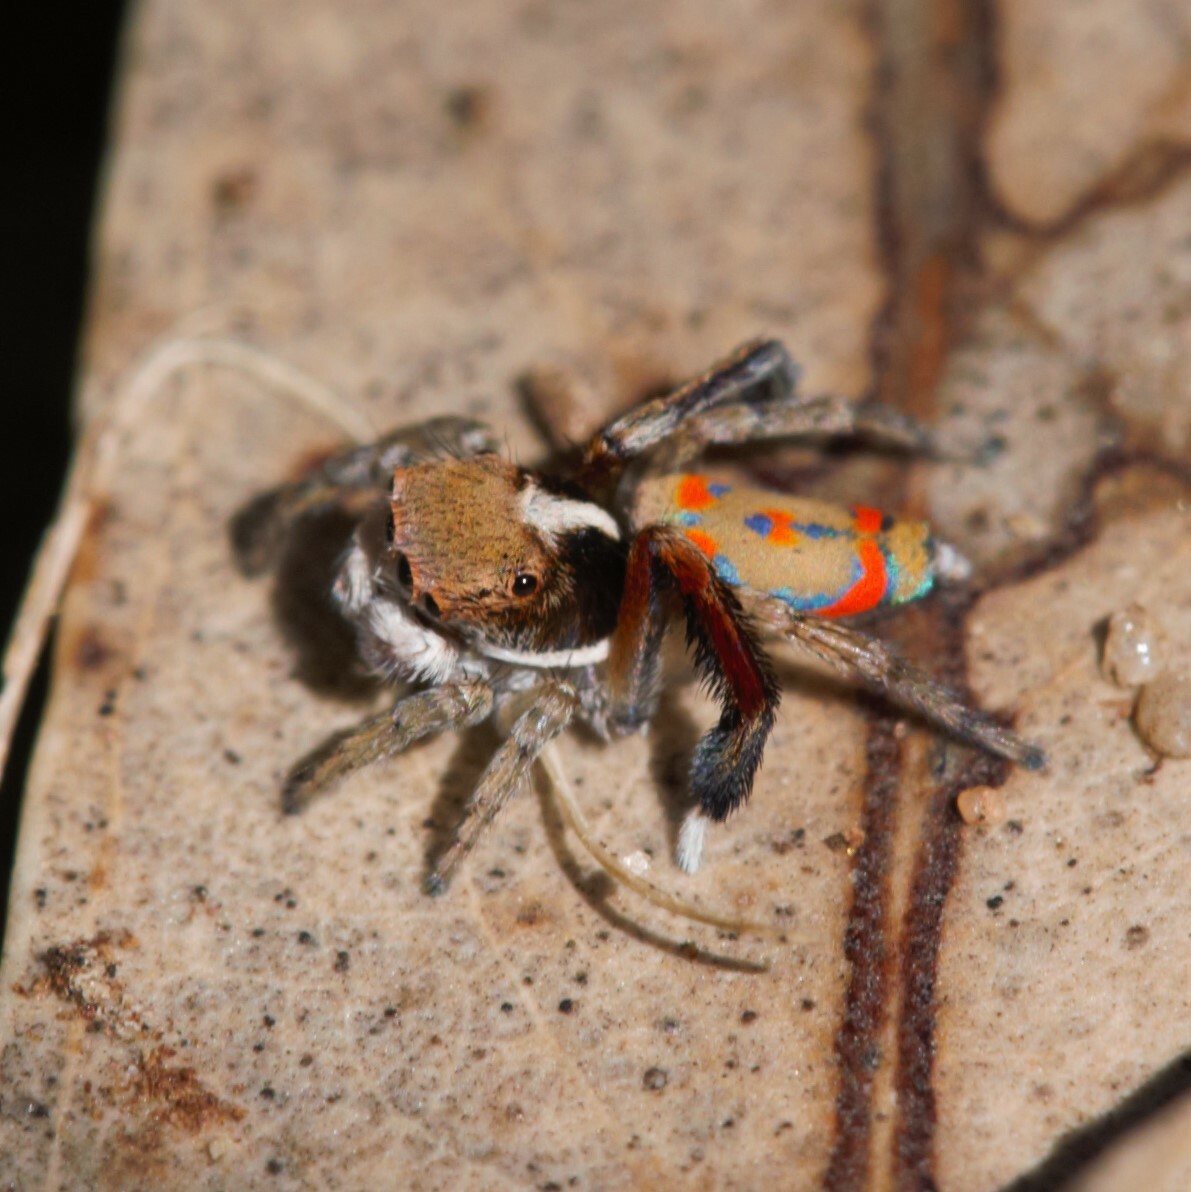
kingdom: Animalia
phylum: Arthropoda
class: Arachnida
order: Araneae
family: Salticidae
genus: Maratus
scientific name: Maratus pavonis
